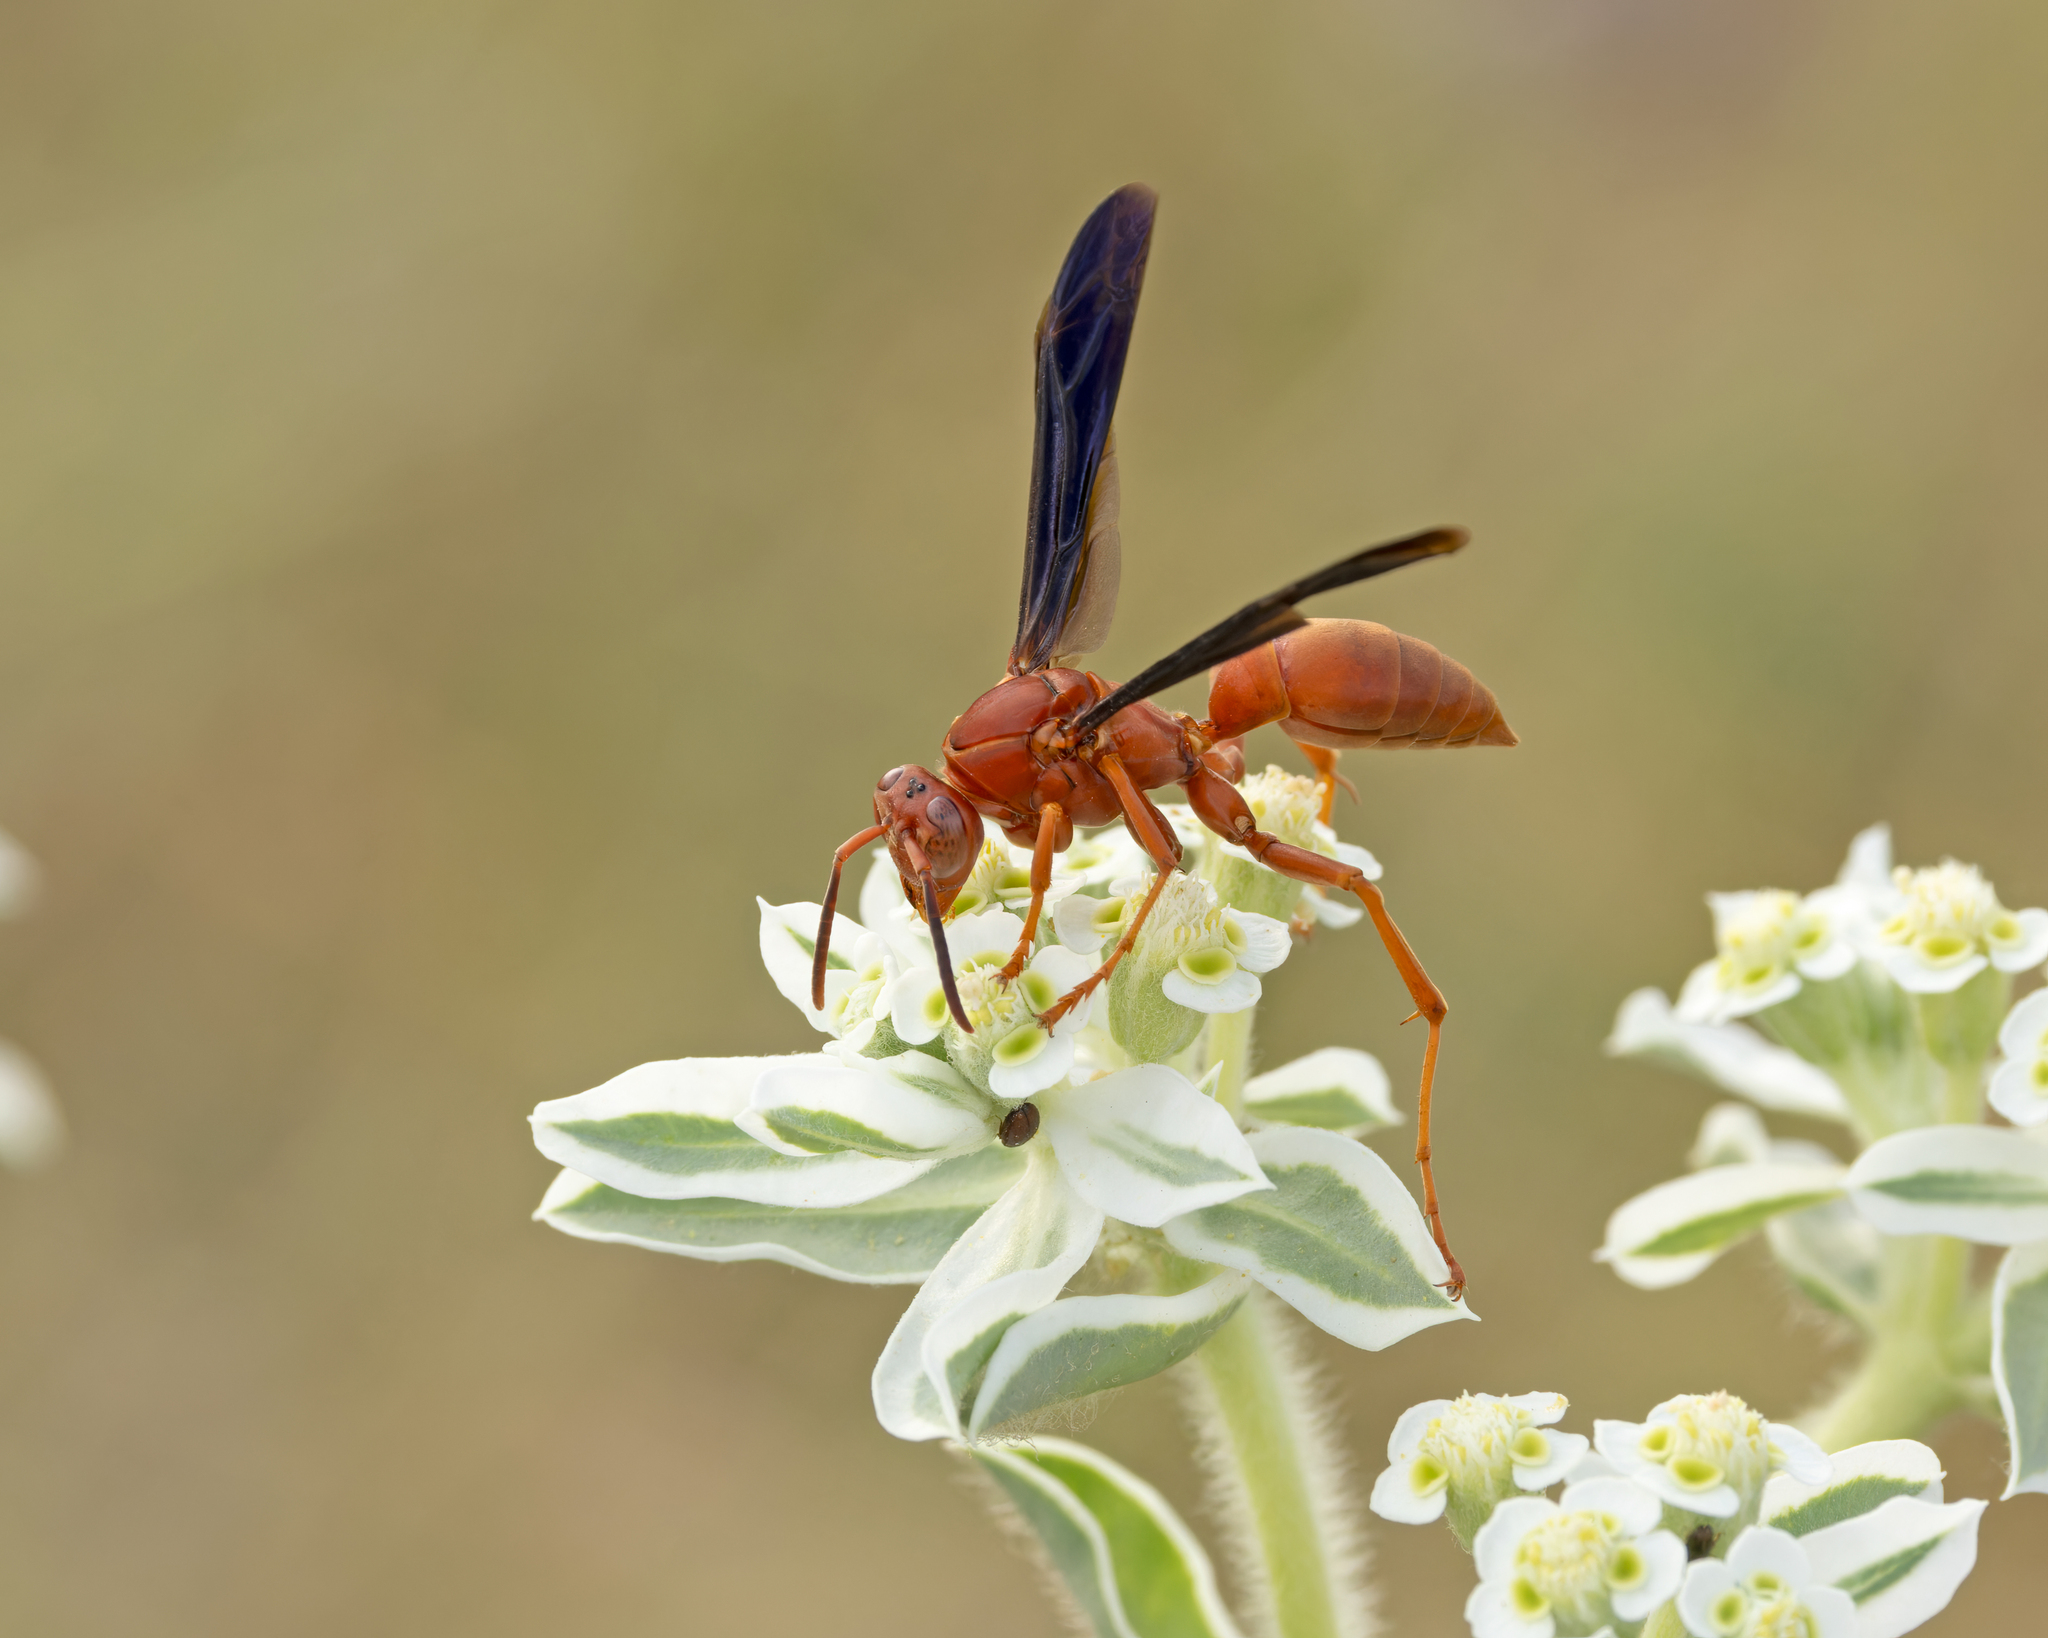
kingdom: Animalia
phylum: Arthropoda
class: Insecta
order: Hymenoptera
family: Eumenidae
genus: Polistes
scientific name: Polistes carolina
